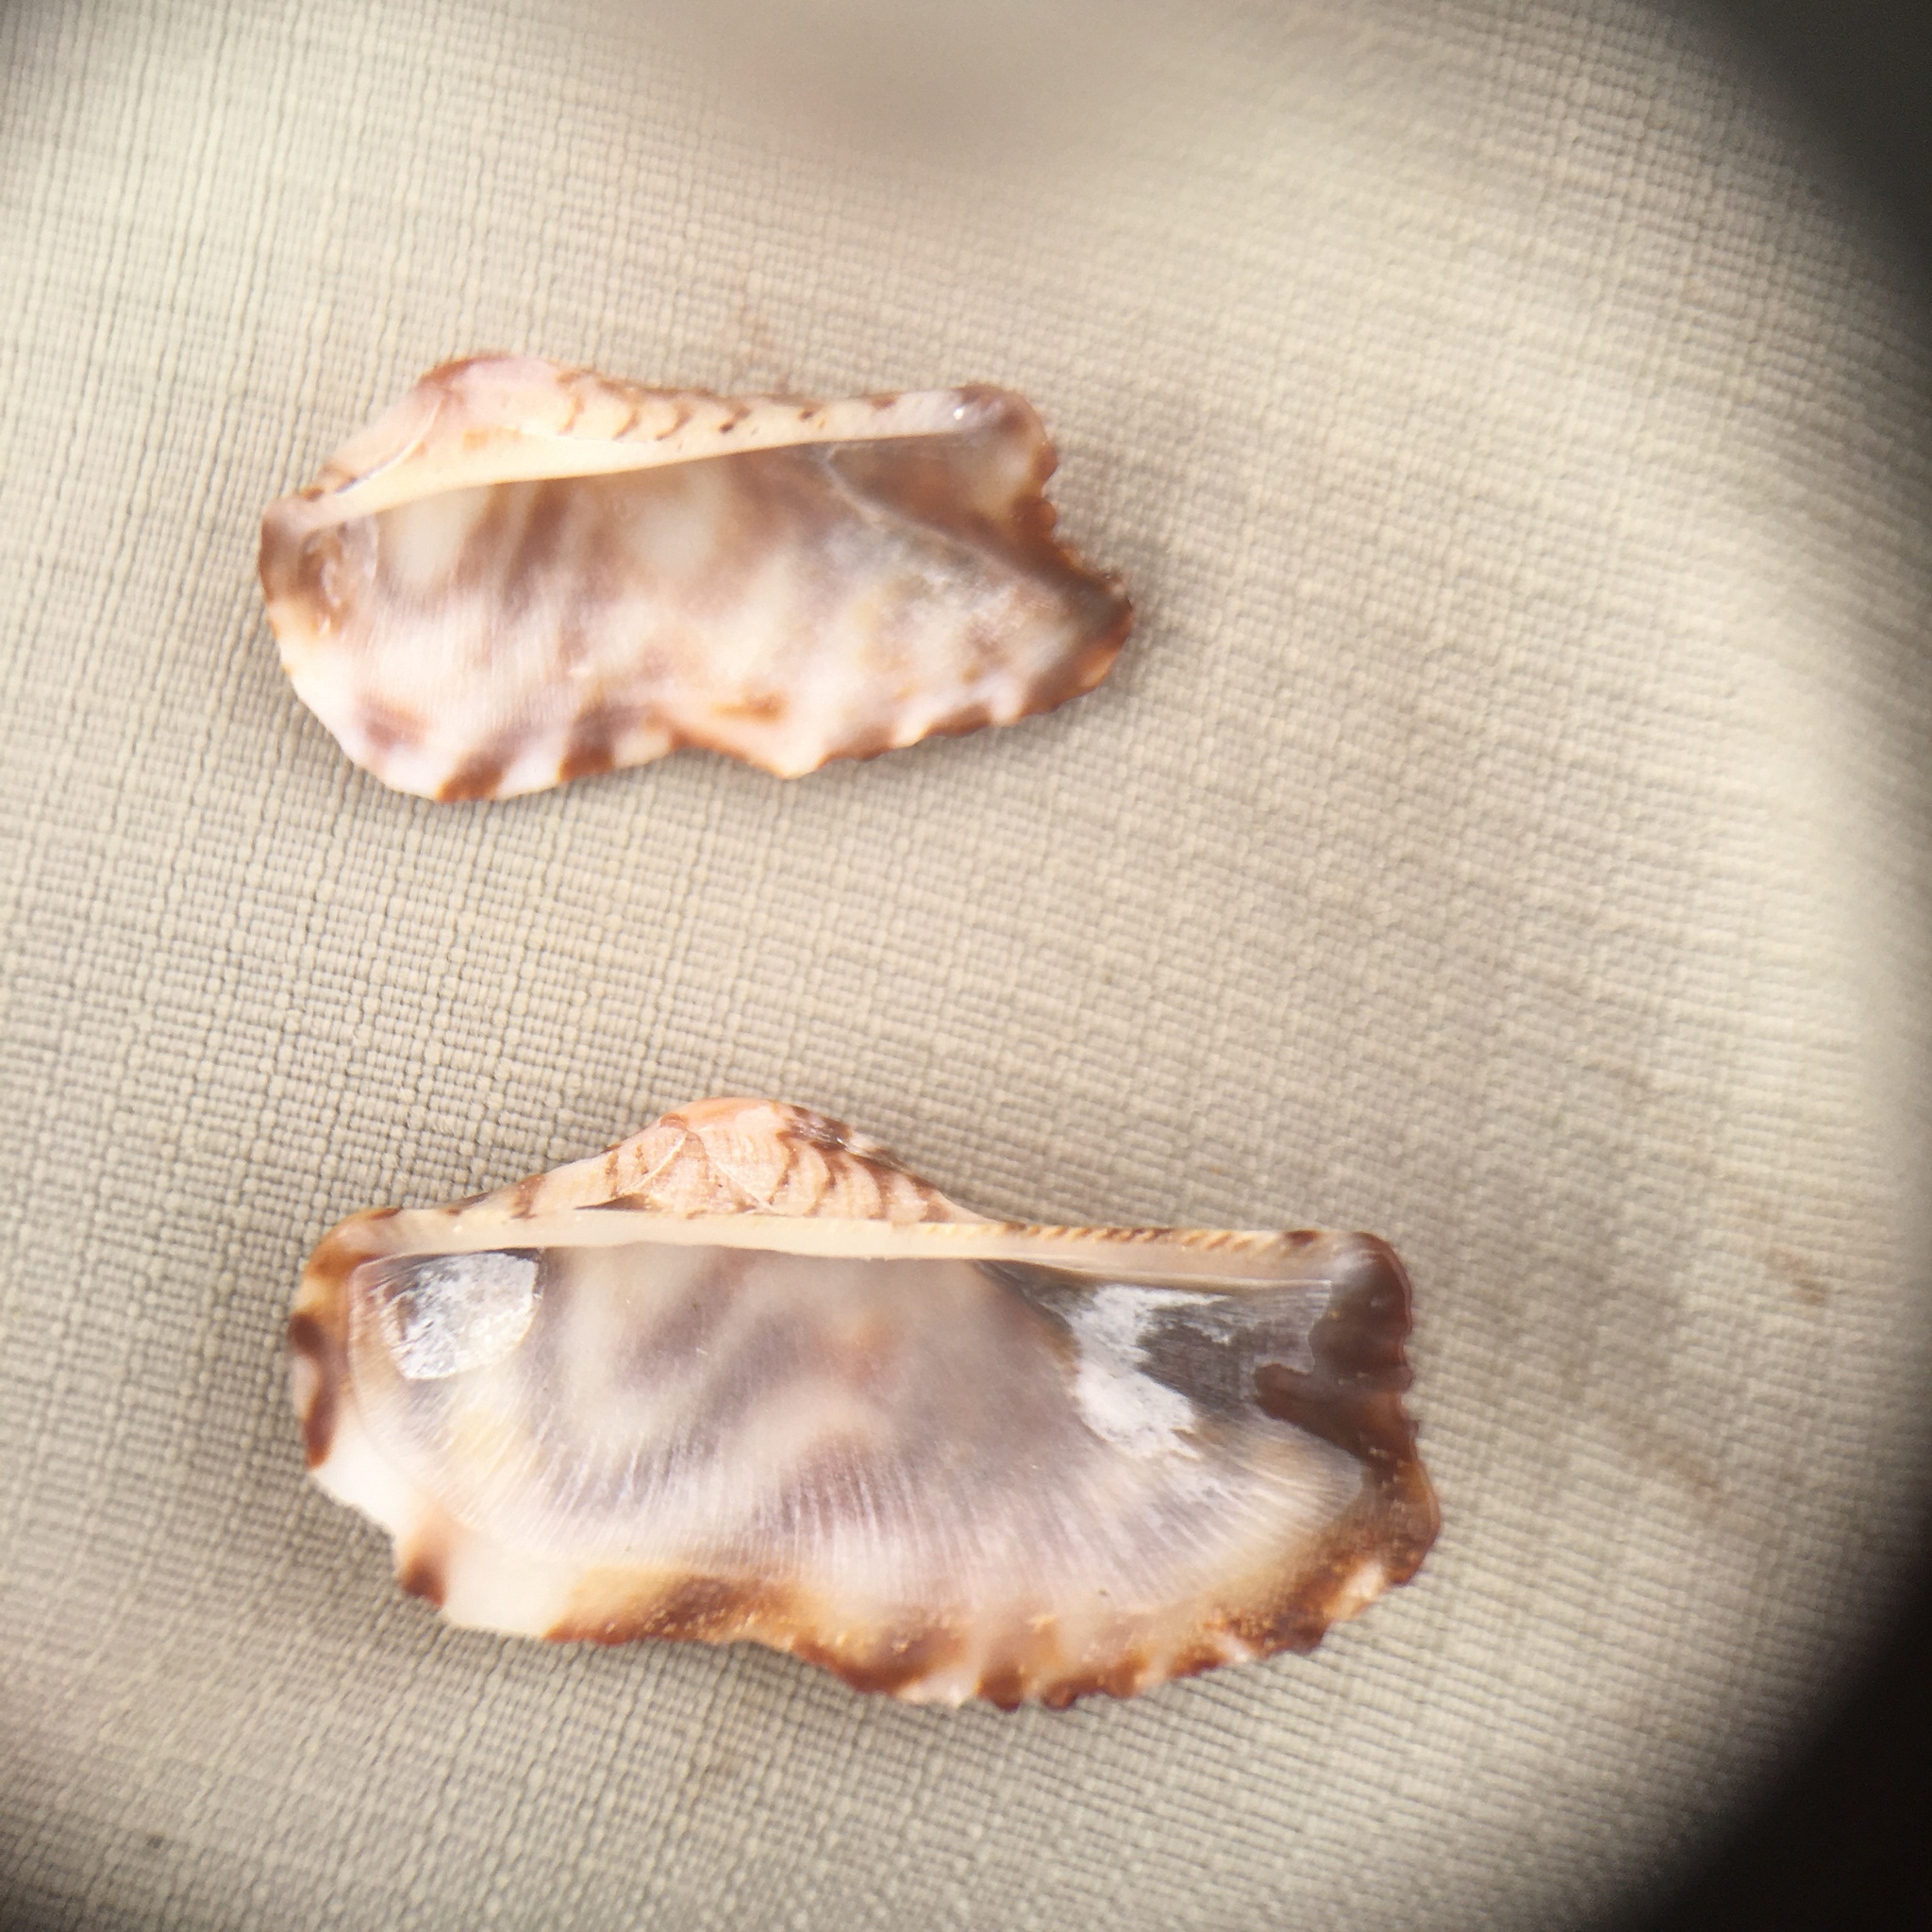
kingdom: Animalia
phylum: Mollusca
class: Bivalvia
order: Arcida
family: Arcidae
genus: Arca
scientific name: Arca noae
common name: Noah's arch
